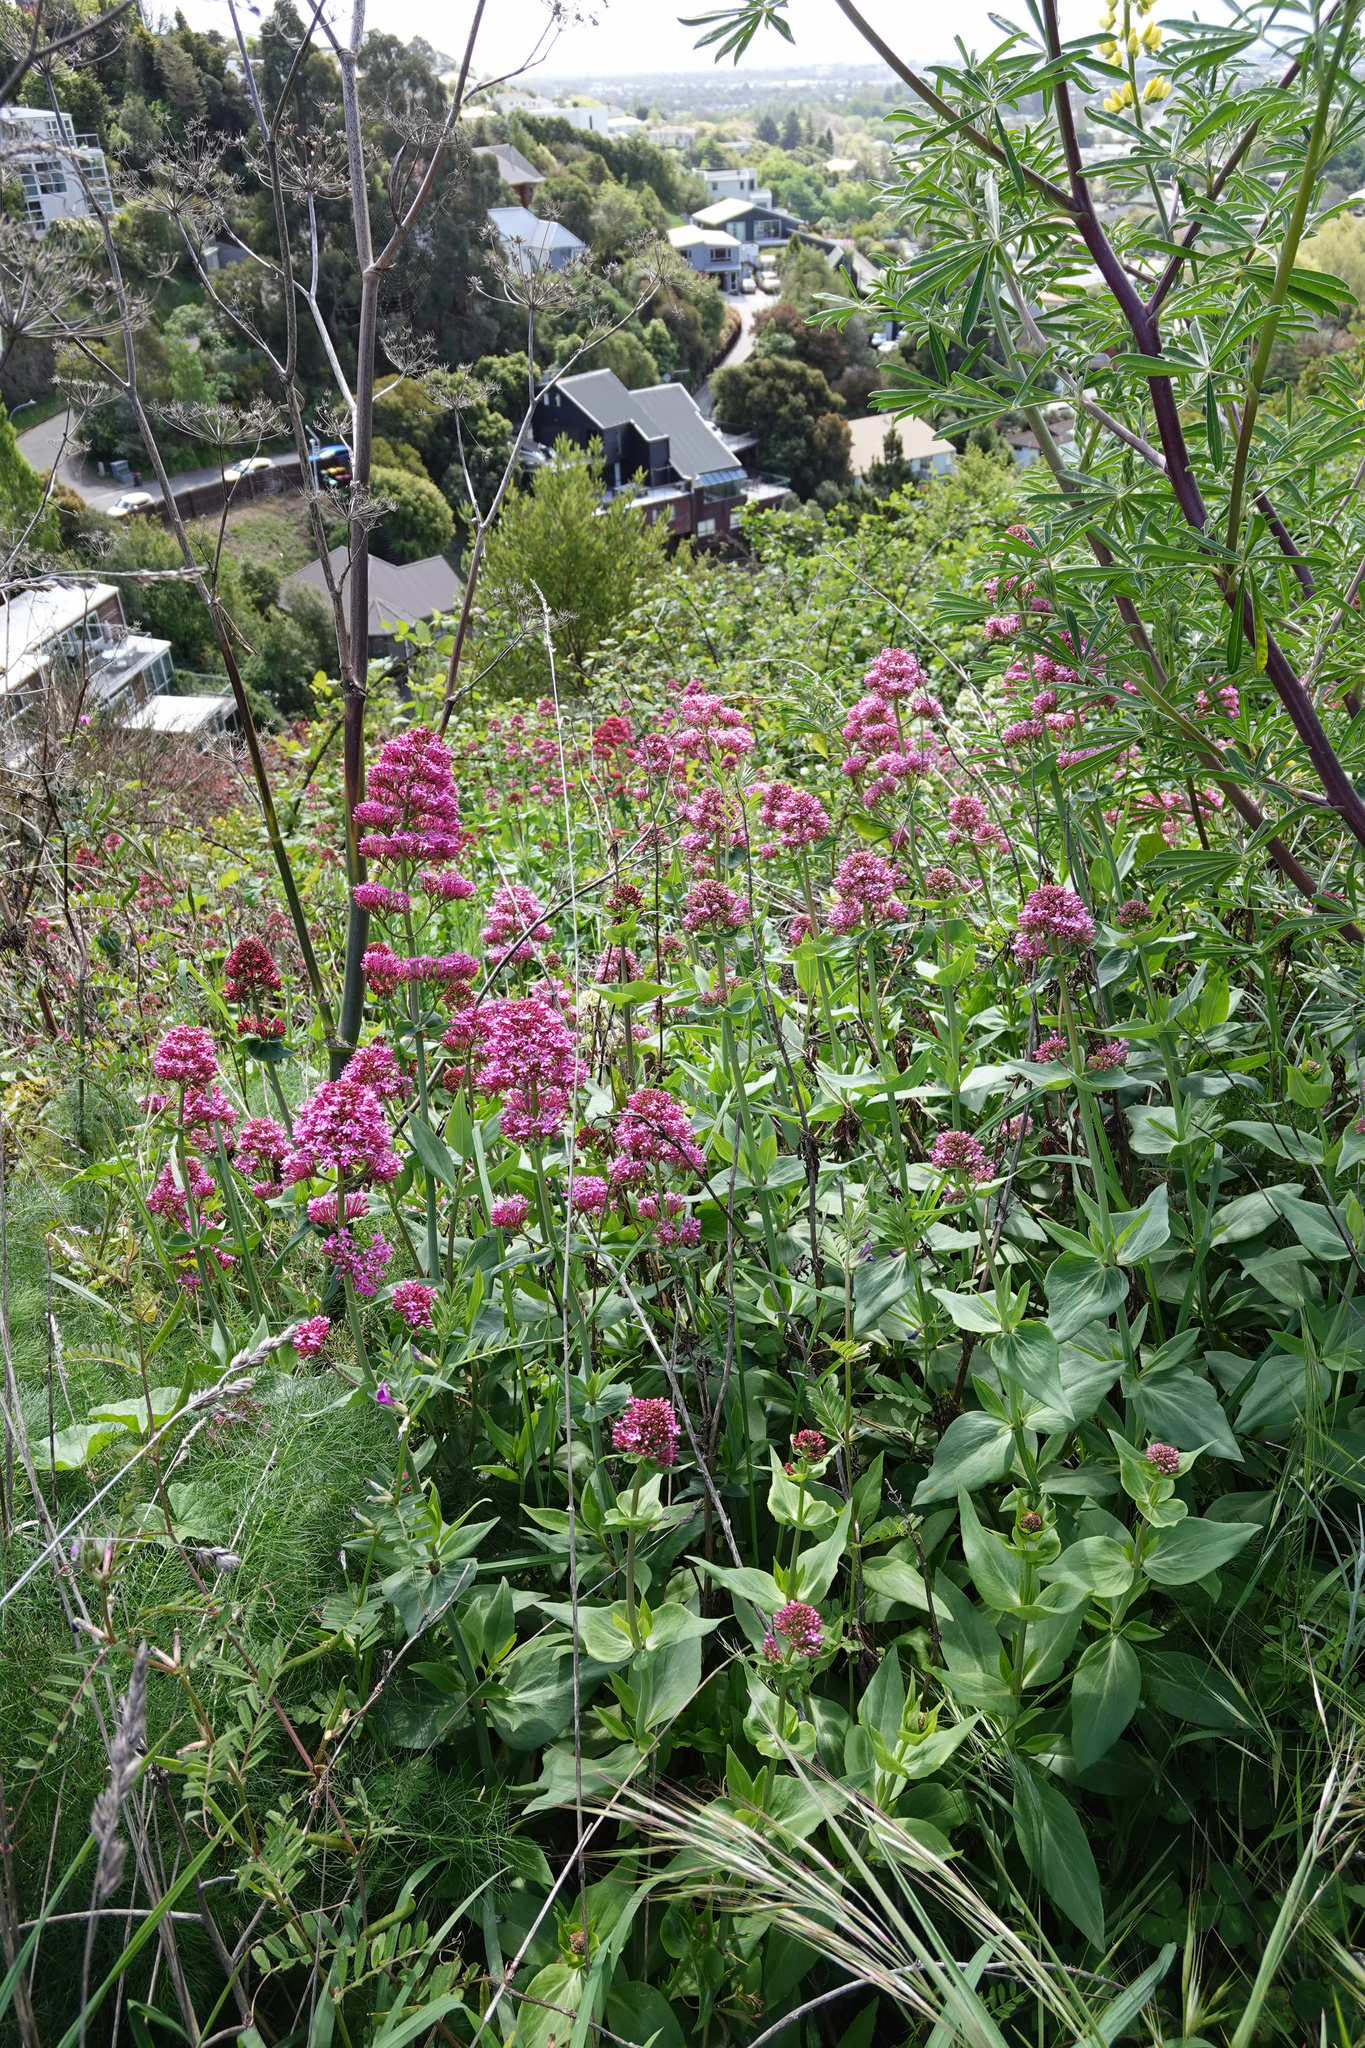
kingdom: Plantae
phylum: Tracheophyta
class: Magnoliopsida
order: Dipsacales
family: Caprifoliaceae
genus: Centranthus
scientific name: Centranthus ruber
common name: Red valerian
